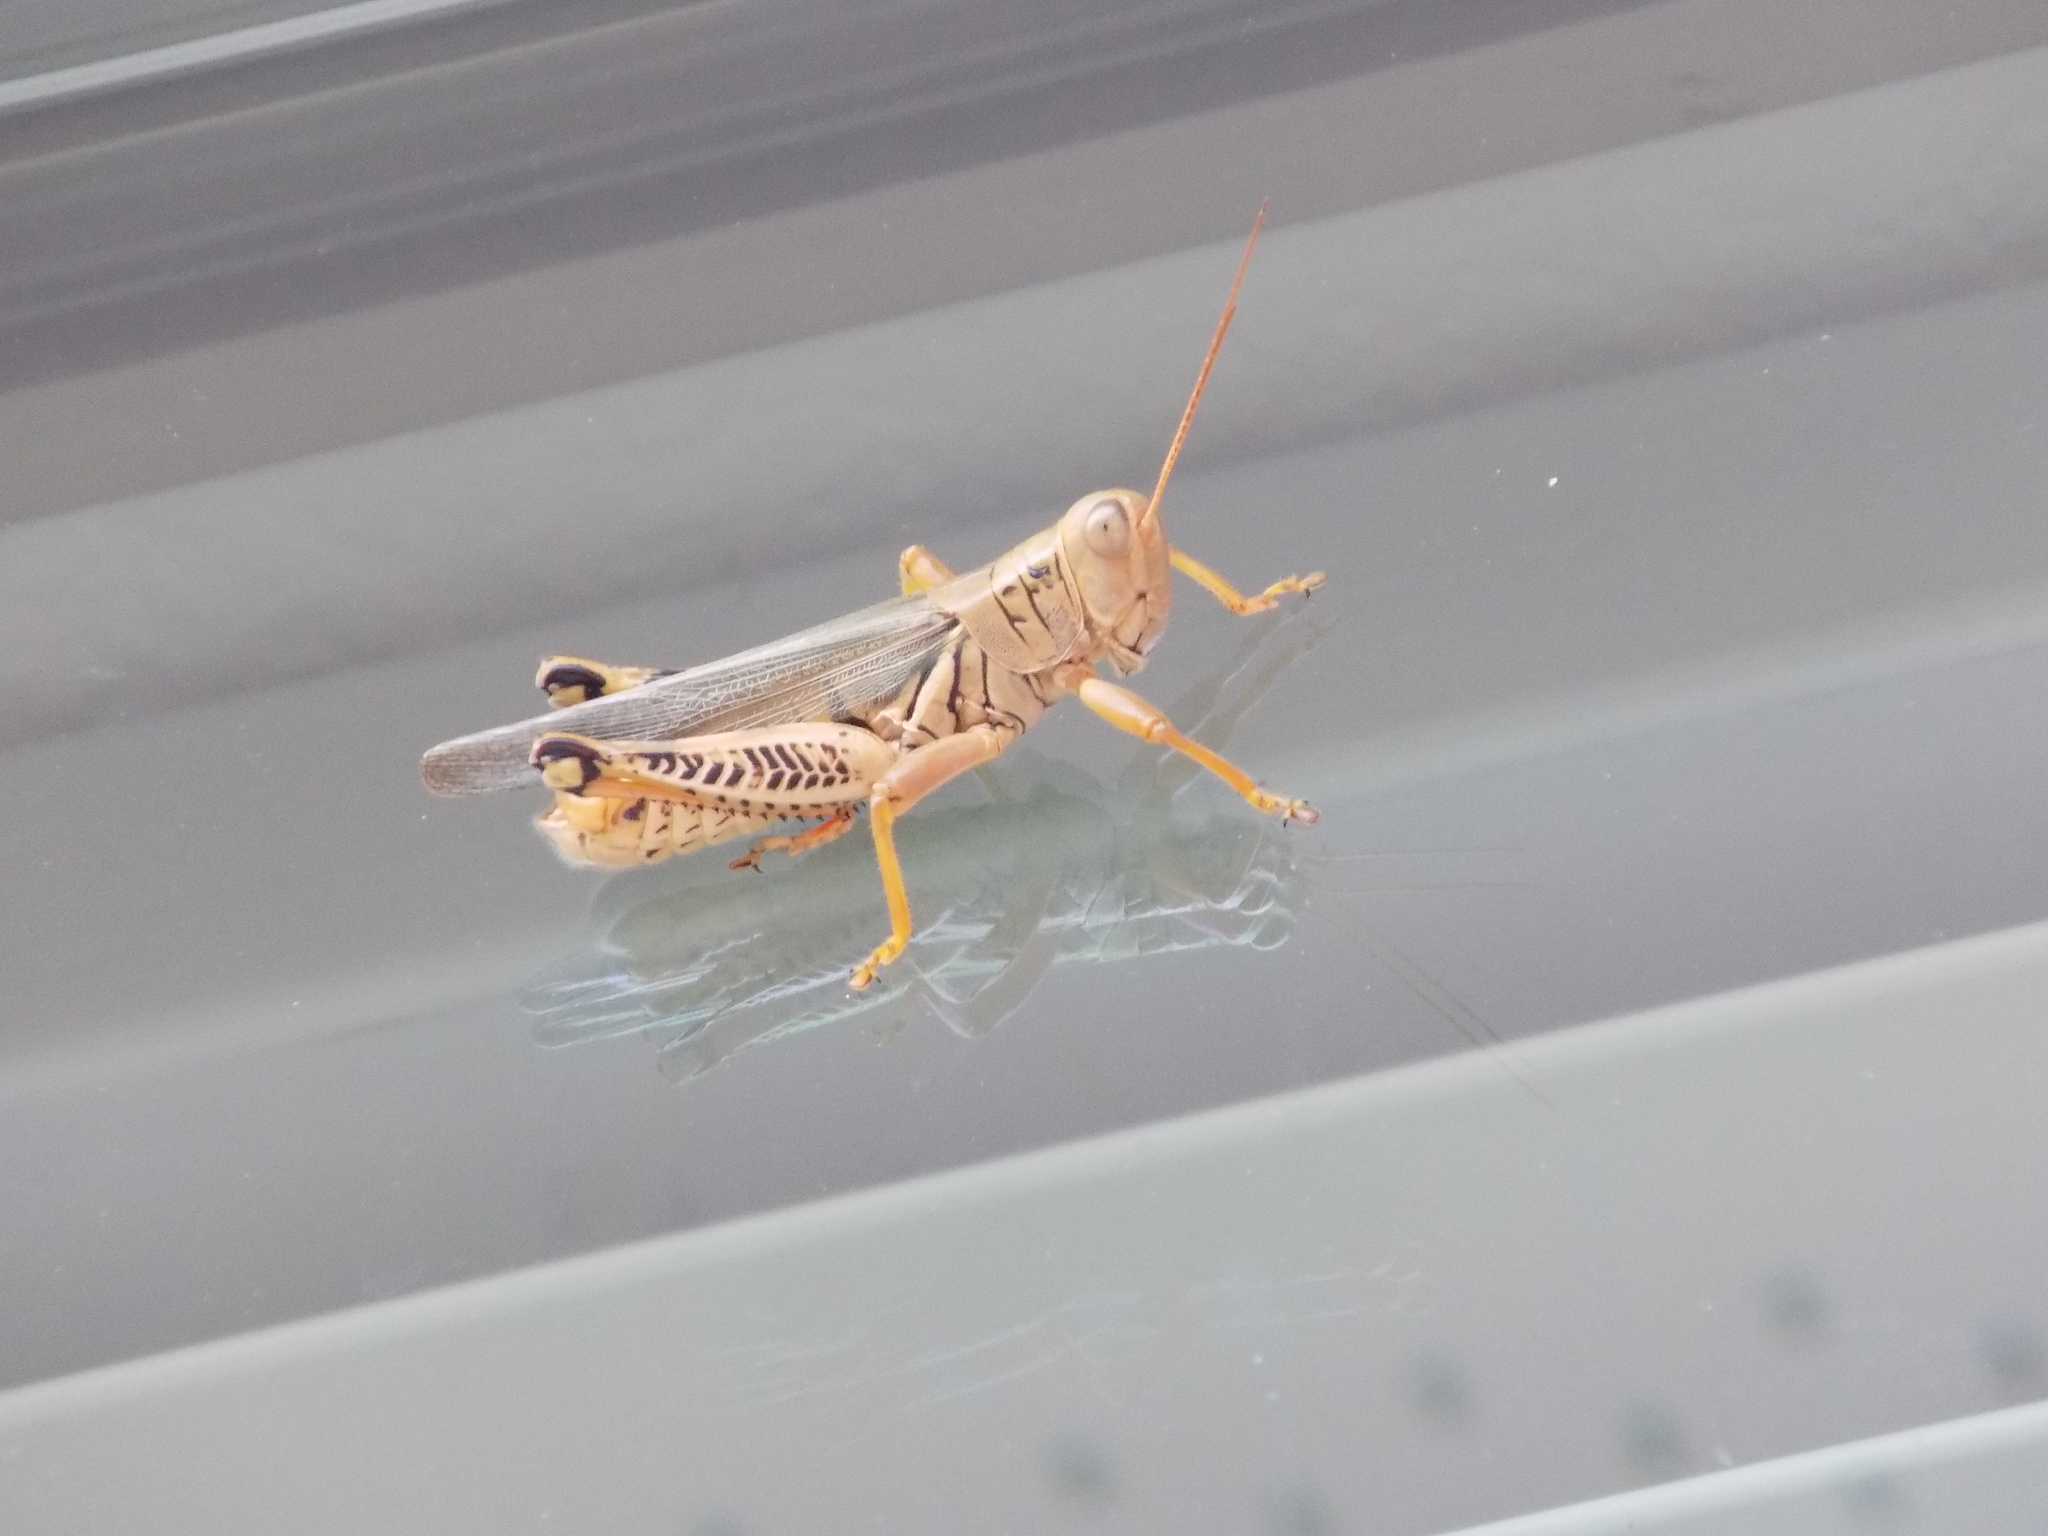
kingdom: Animalia
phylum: Arthropoda
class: Insecta
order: Orthoptera
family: Acrididae
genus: Melanoplus
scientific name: Melanoplus differentialis
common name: Differential grasshopper
